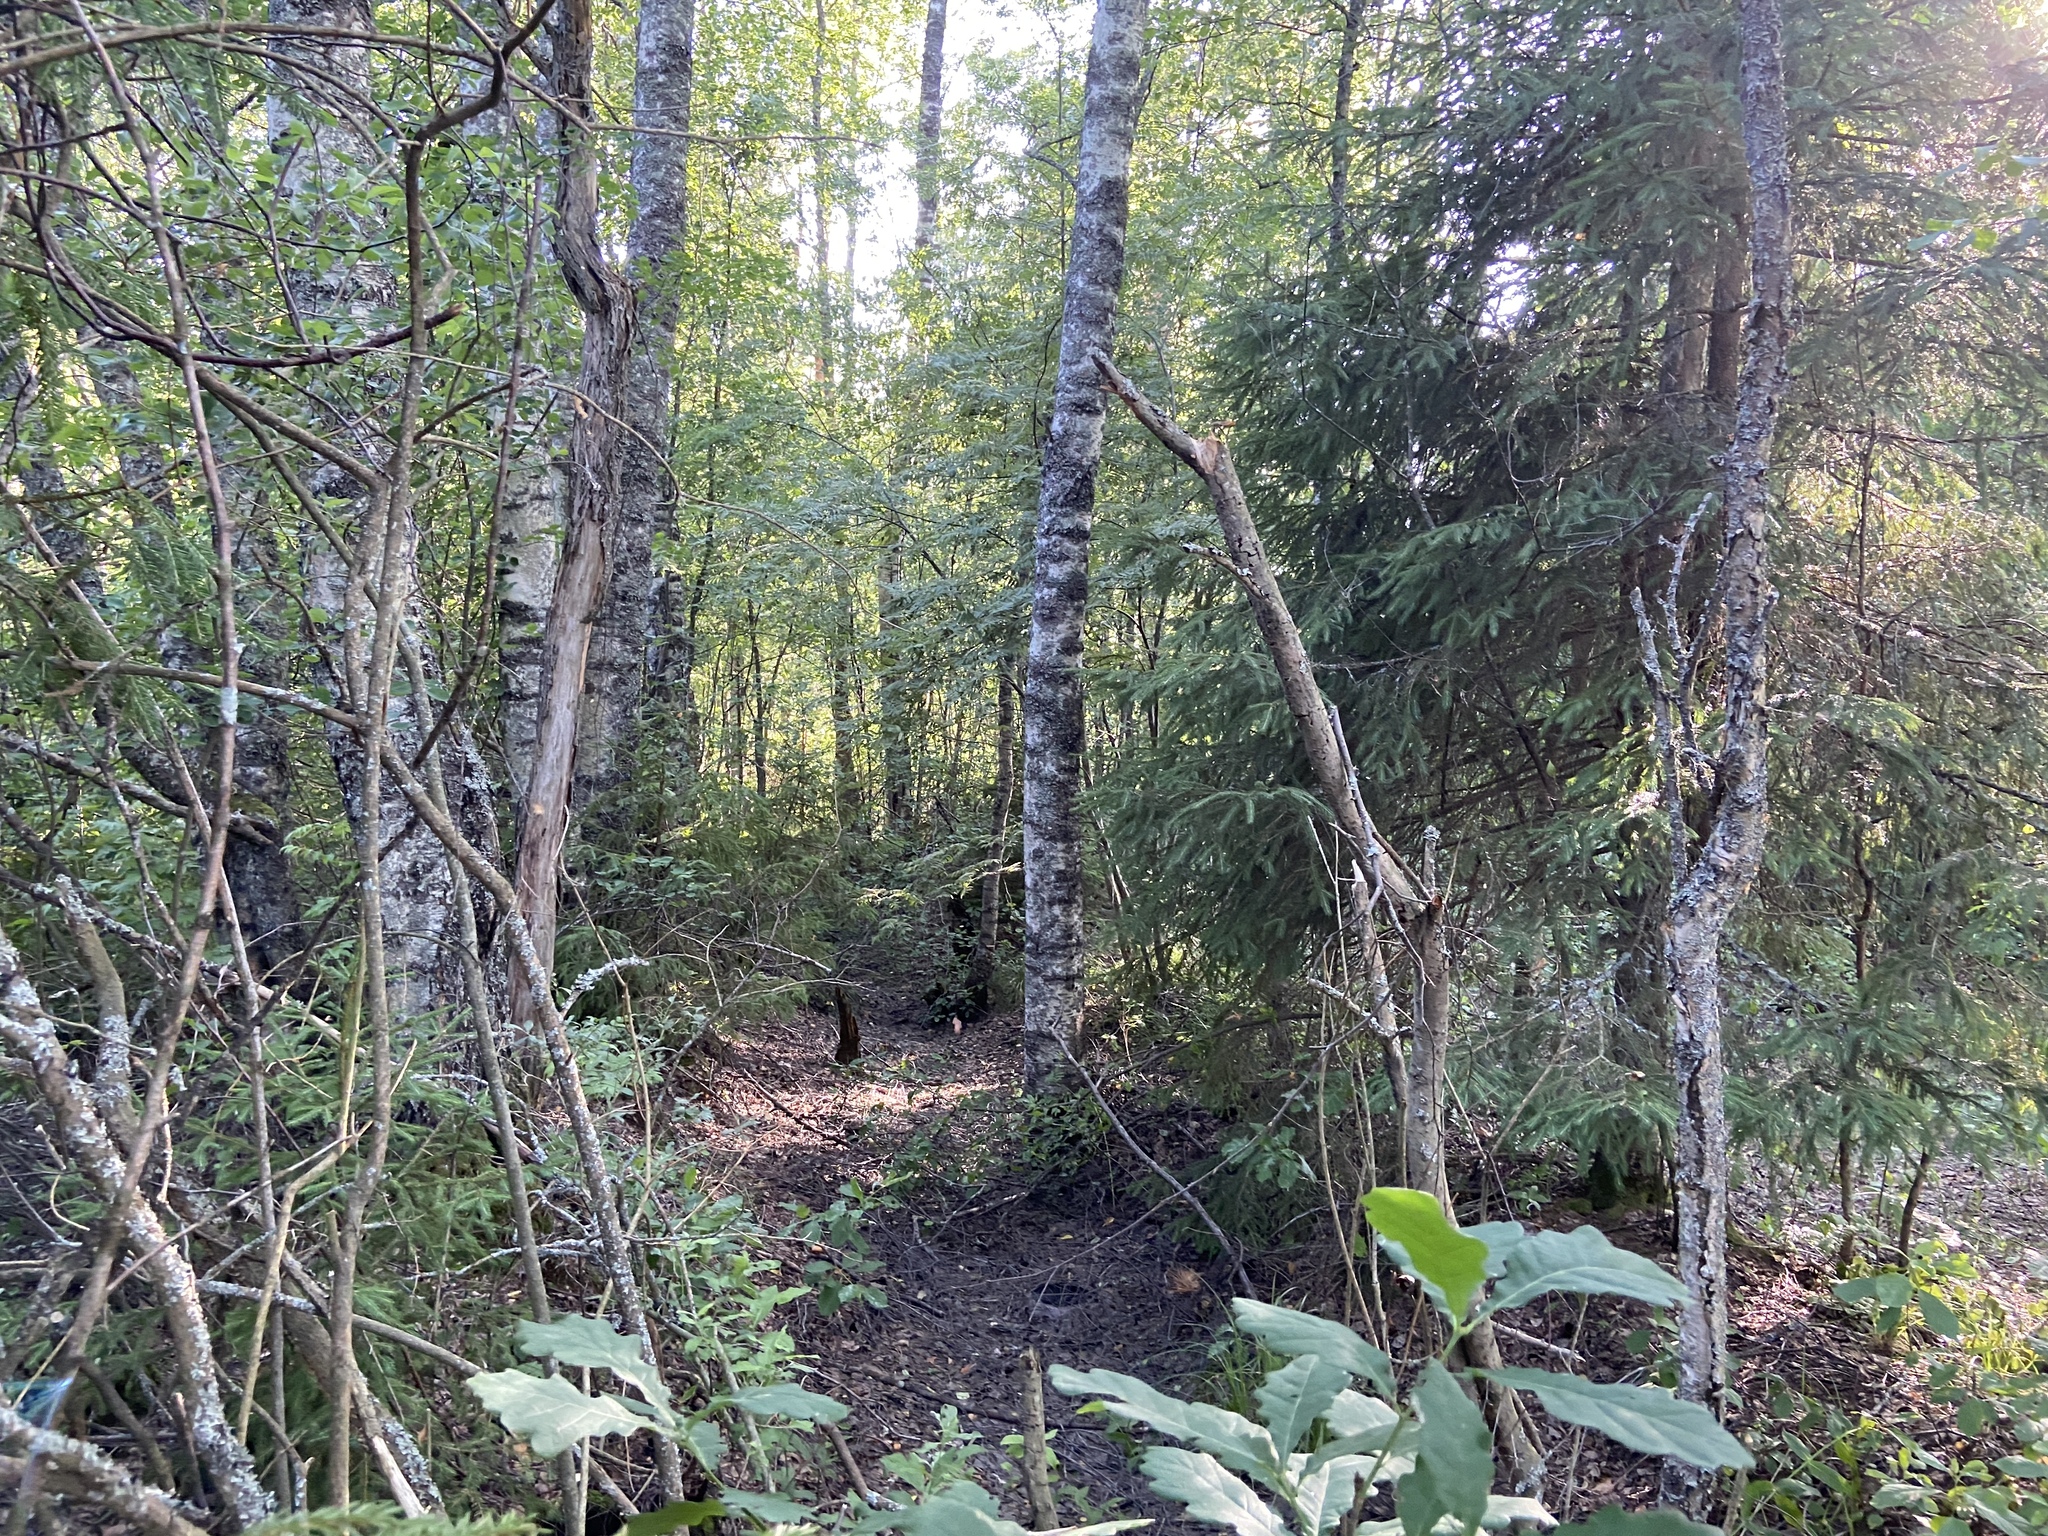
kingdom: Plantae
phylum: Tracheophyta
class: Pinopsida
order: Pinales
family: Pinaceae
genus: Picea
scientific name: Picea abies
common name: Norway spruce
